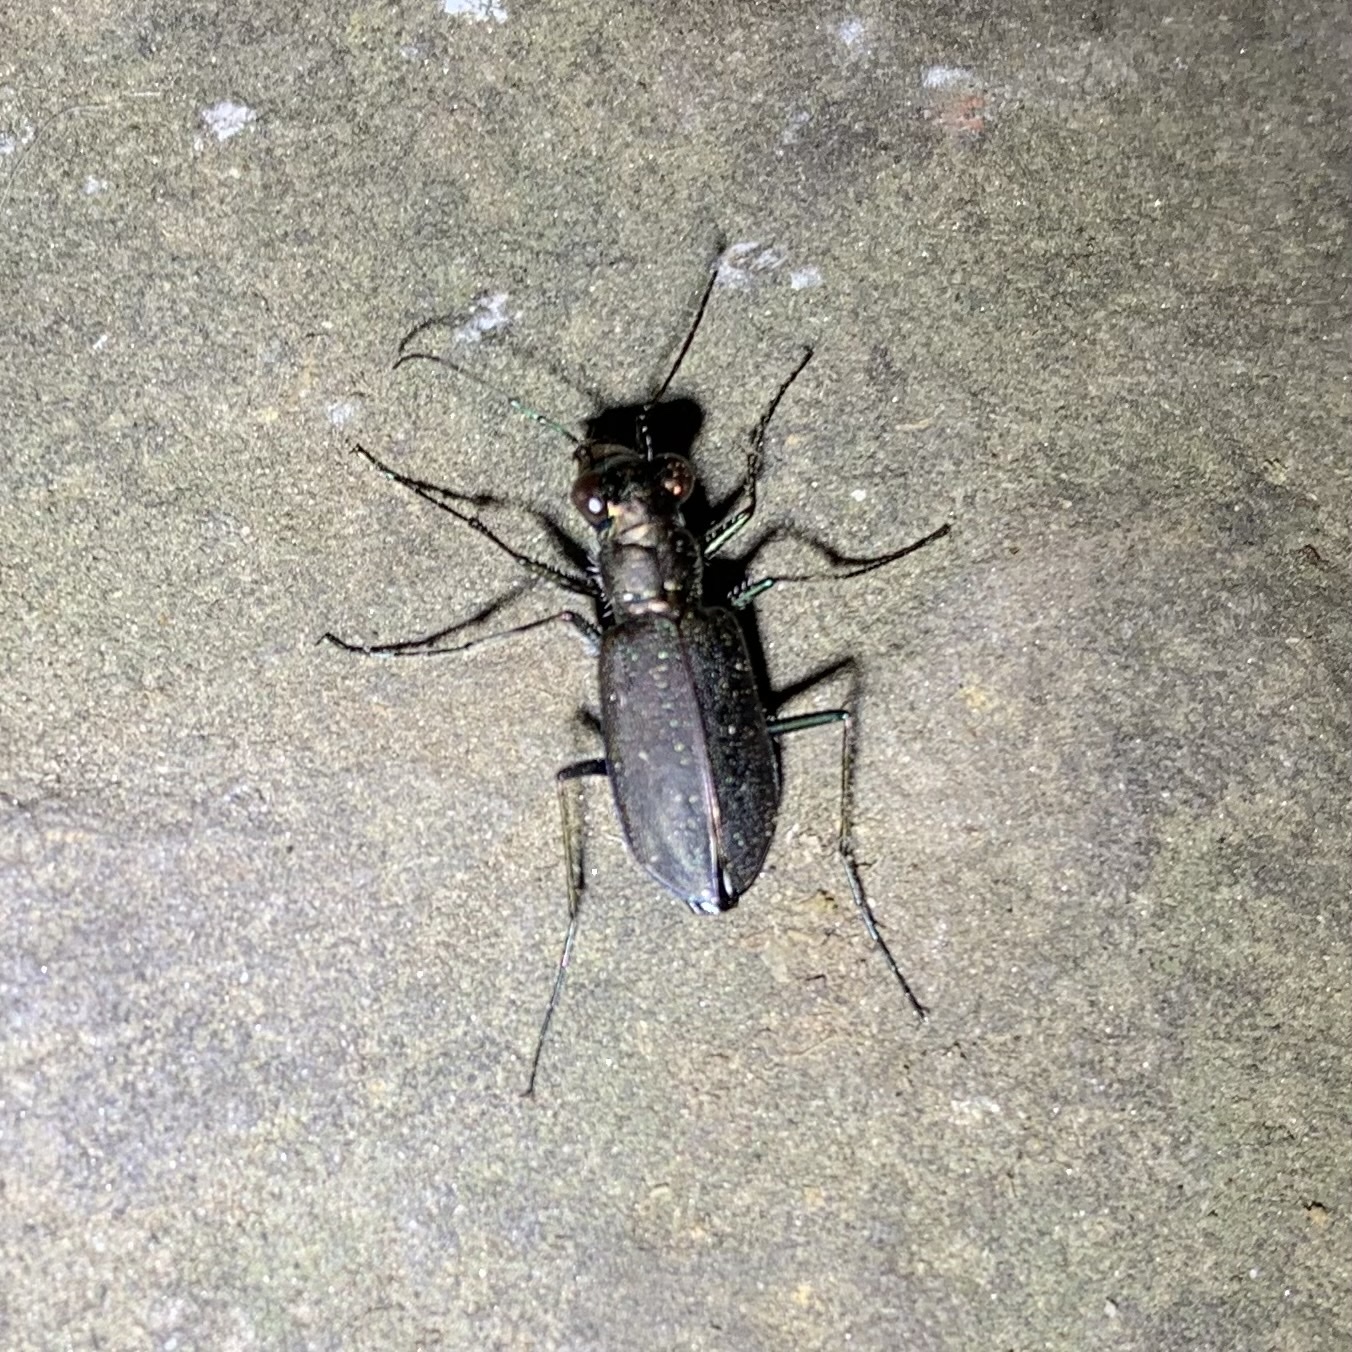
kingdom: Animalia
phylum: Arthropoda
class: Insecta
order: Coleoptera
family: Carabidae
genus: Cicindela
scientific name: Cicindela punctulata
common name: Punctured tiger beetle
